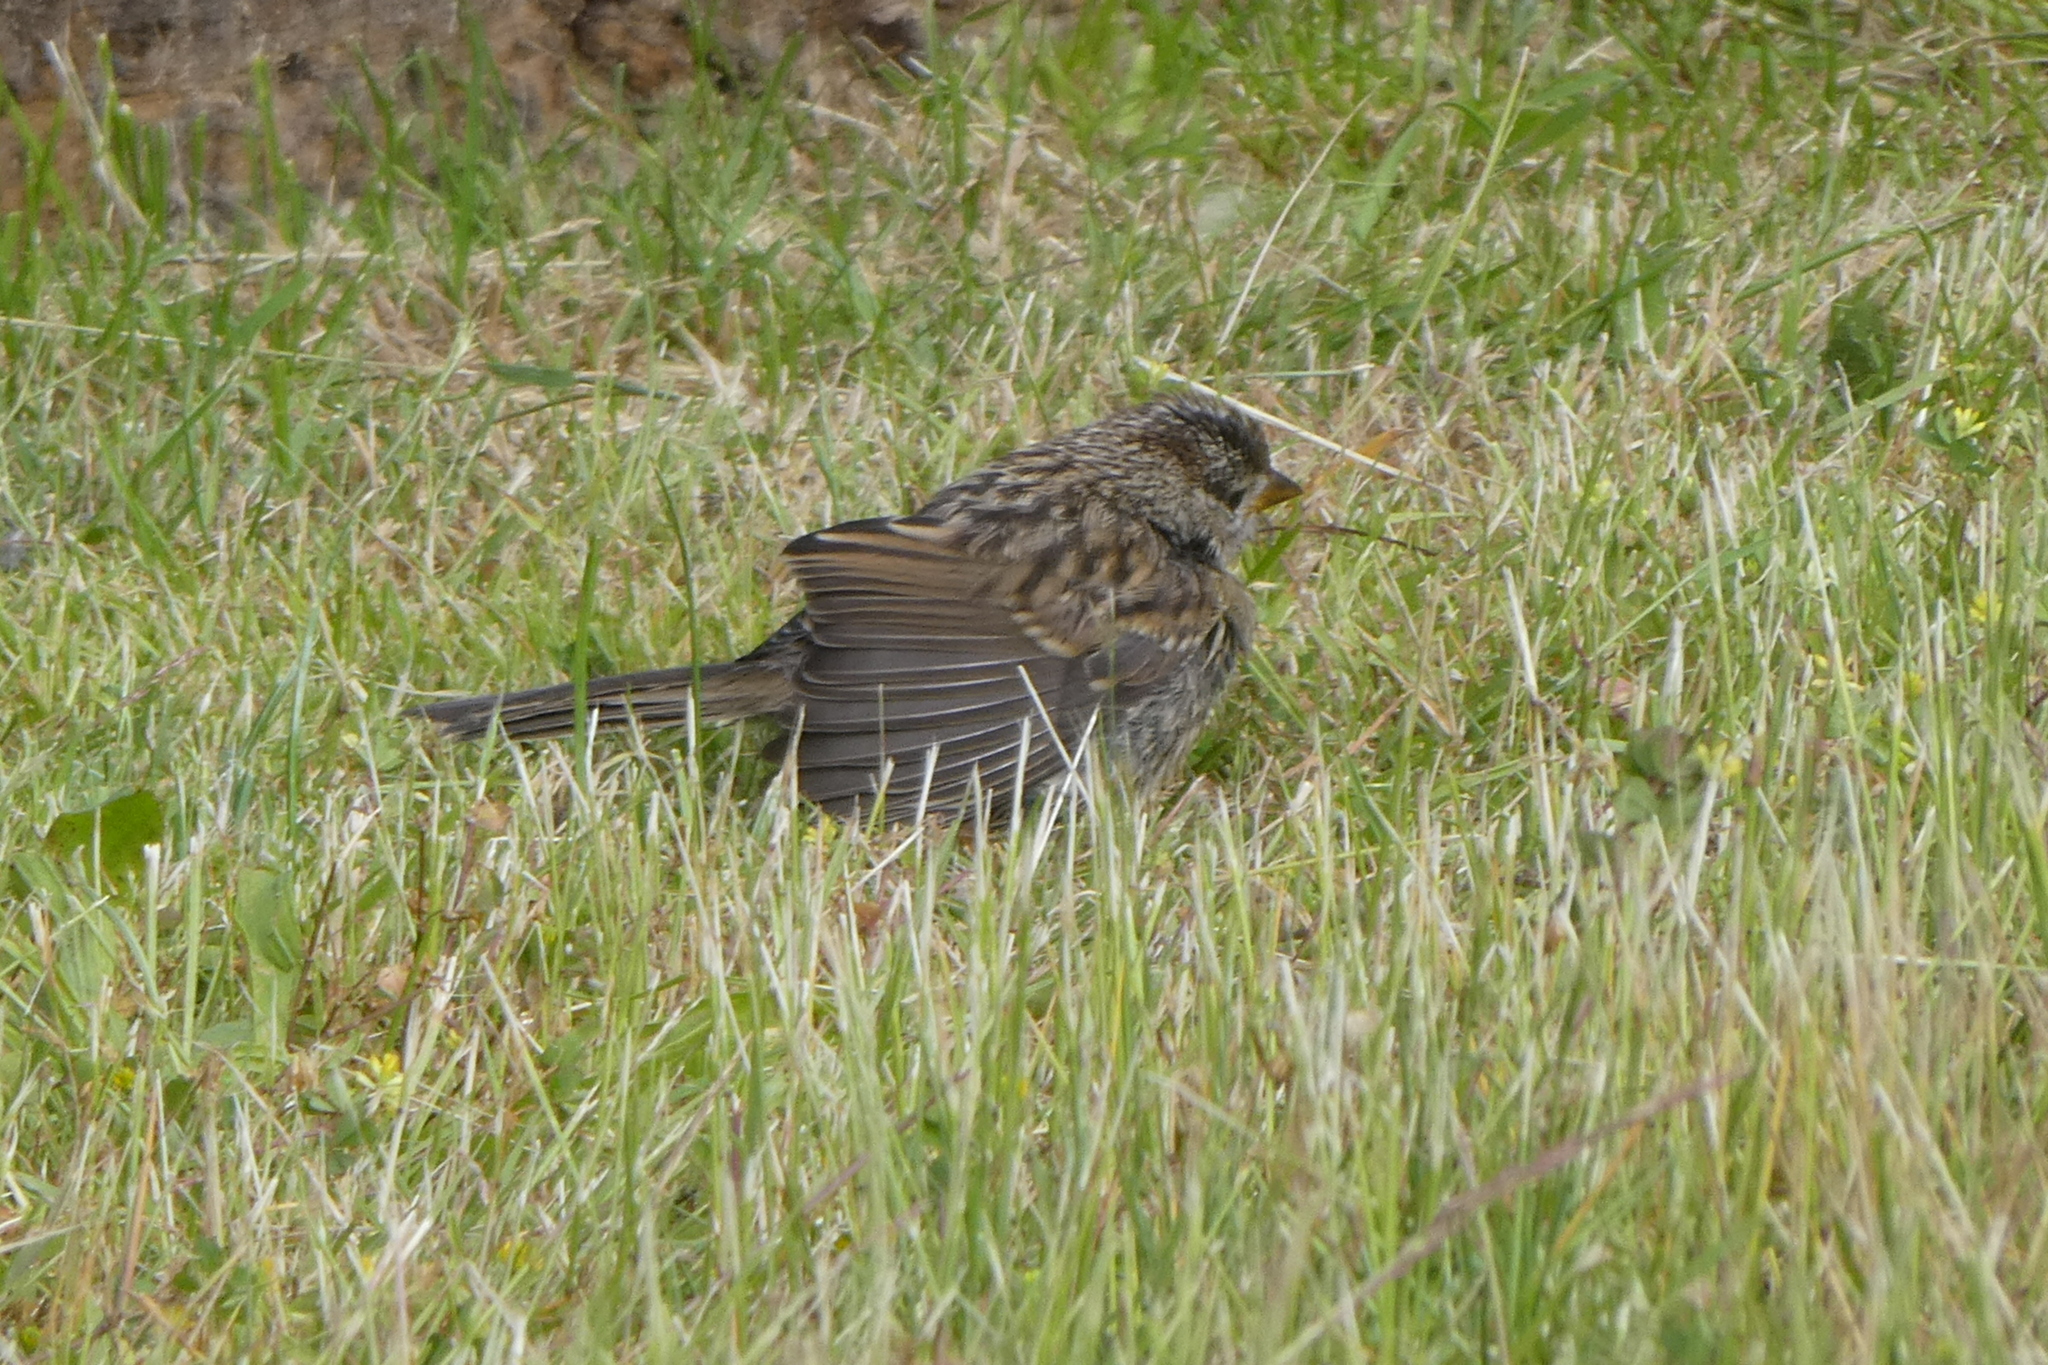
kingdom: Animalia
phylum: Chordata
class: Aves
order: Passeriformes
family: Passerellidae
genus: Zonotrichia
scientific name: Zonotrichia leucophrys
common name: White-crowned sparrow
